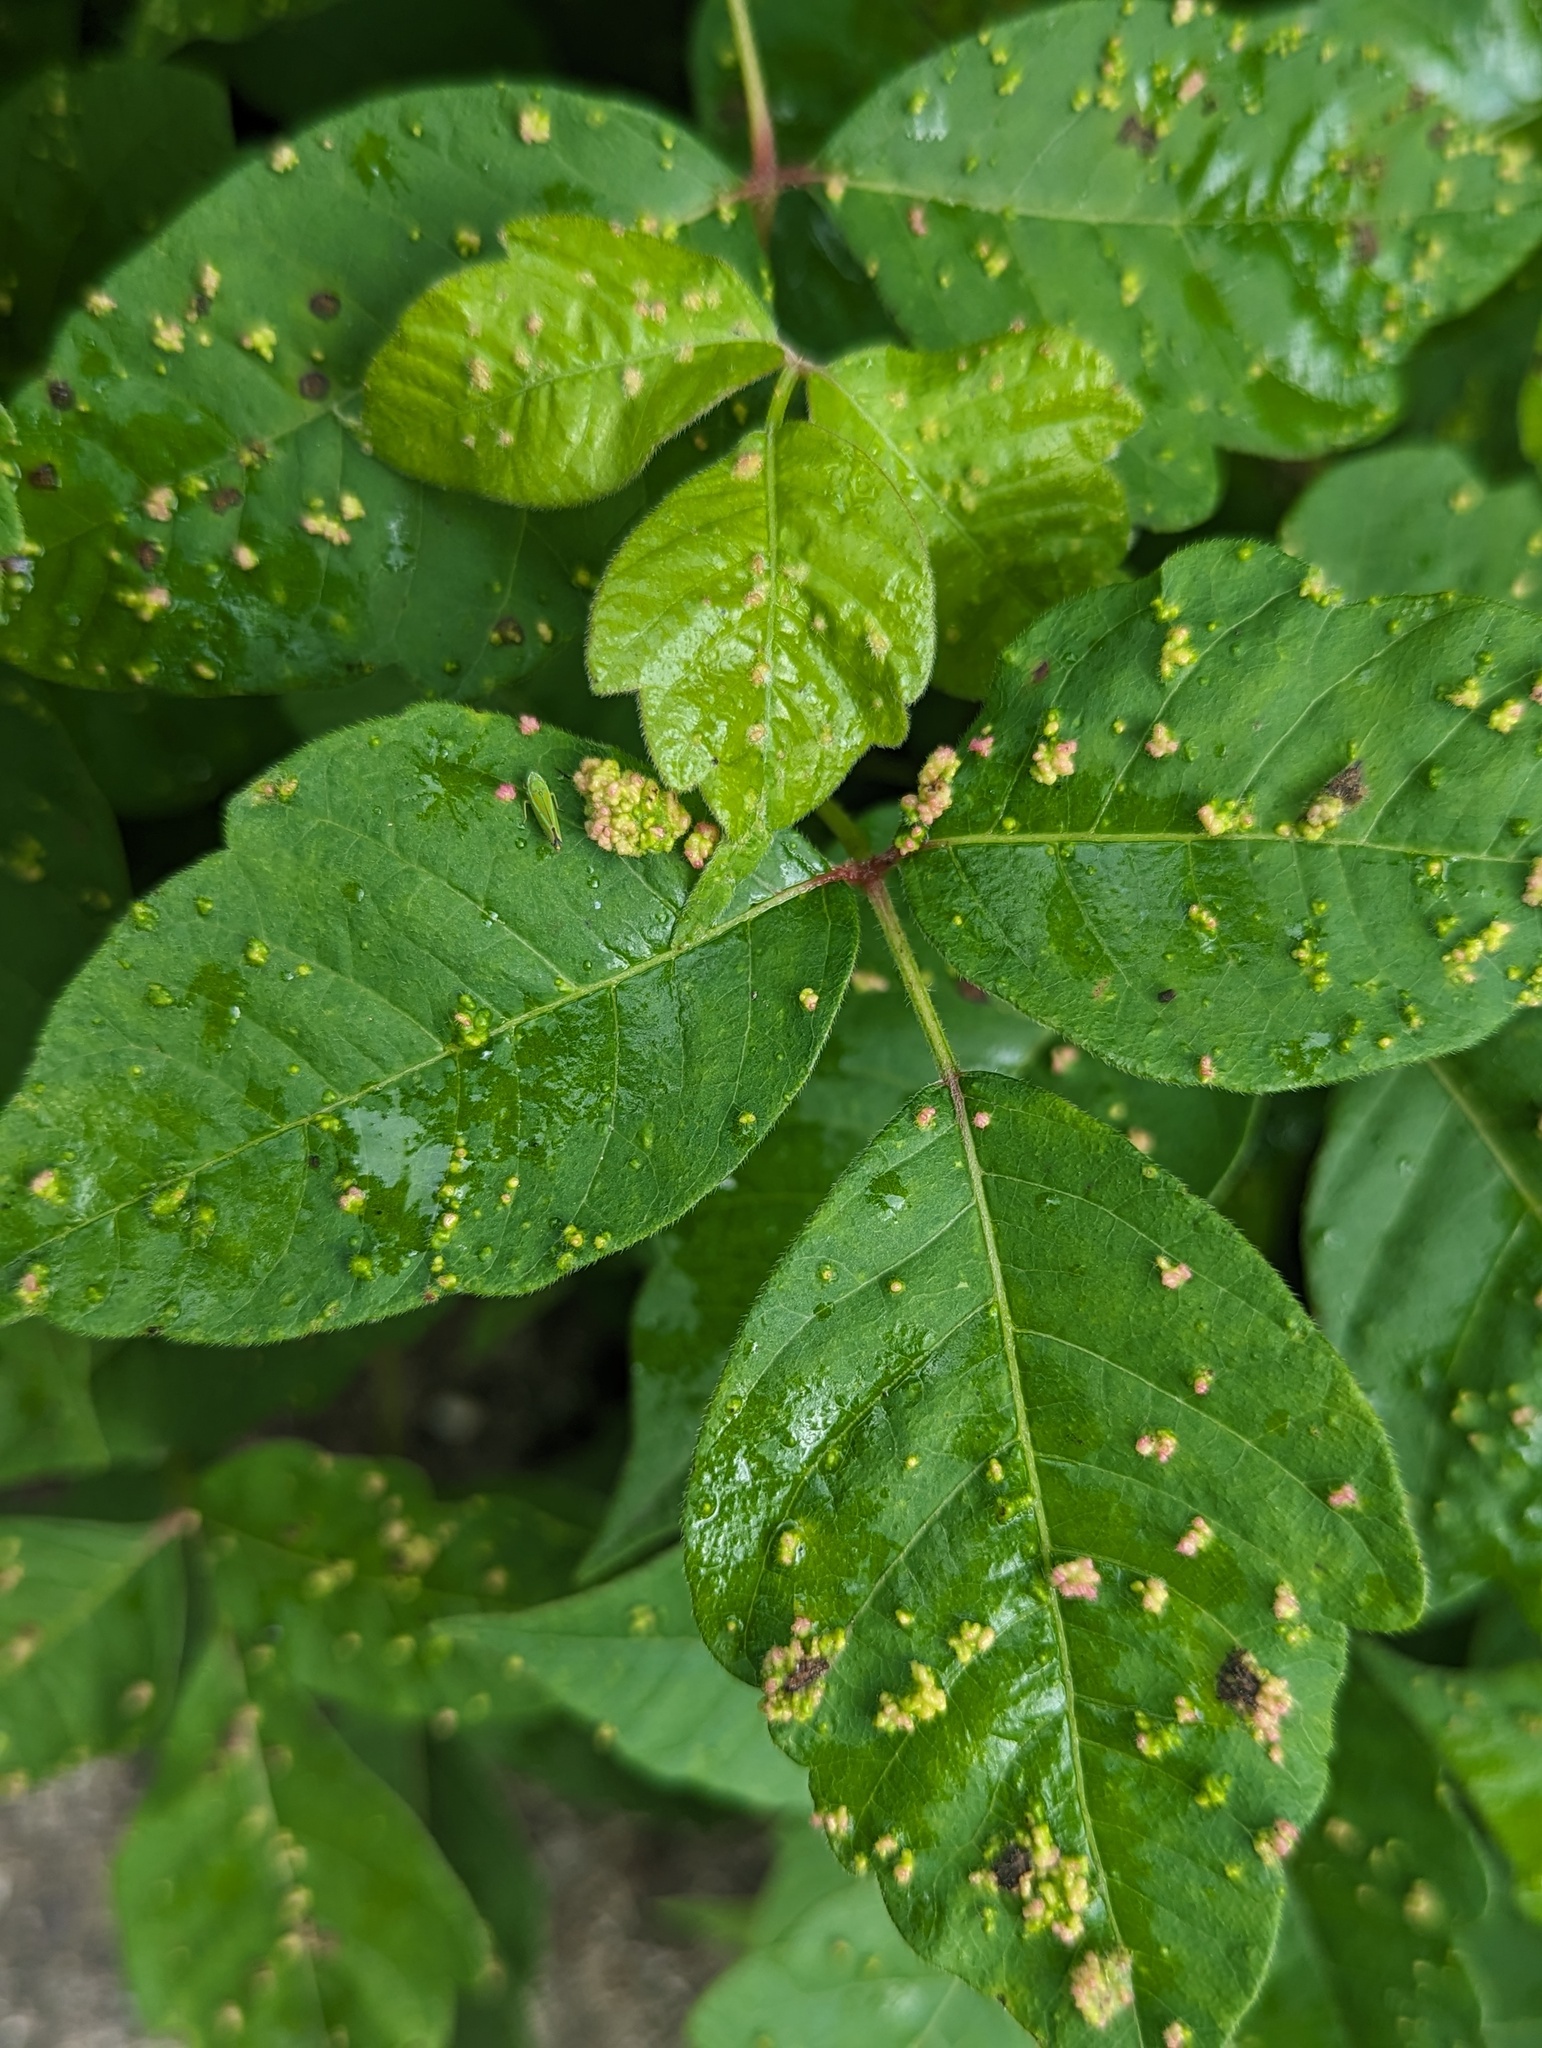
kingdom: Animalia
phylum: Arthropoda
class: Arachnida
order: Trombidiformes
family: Eriophyidae
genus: Aculops
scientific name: Aculops
